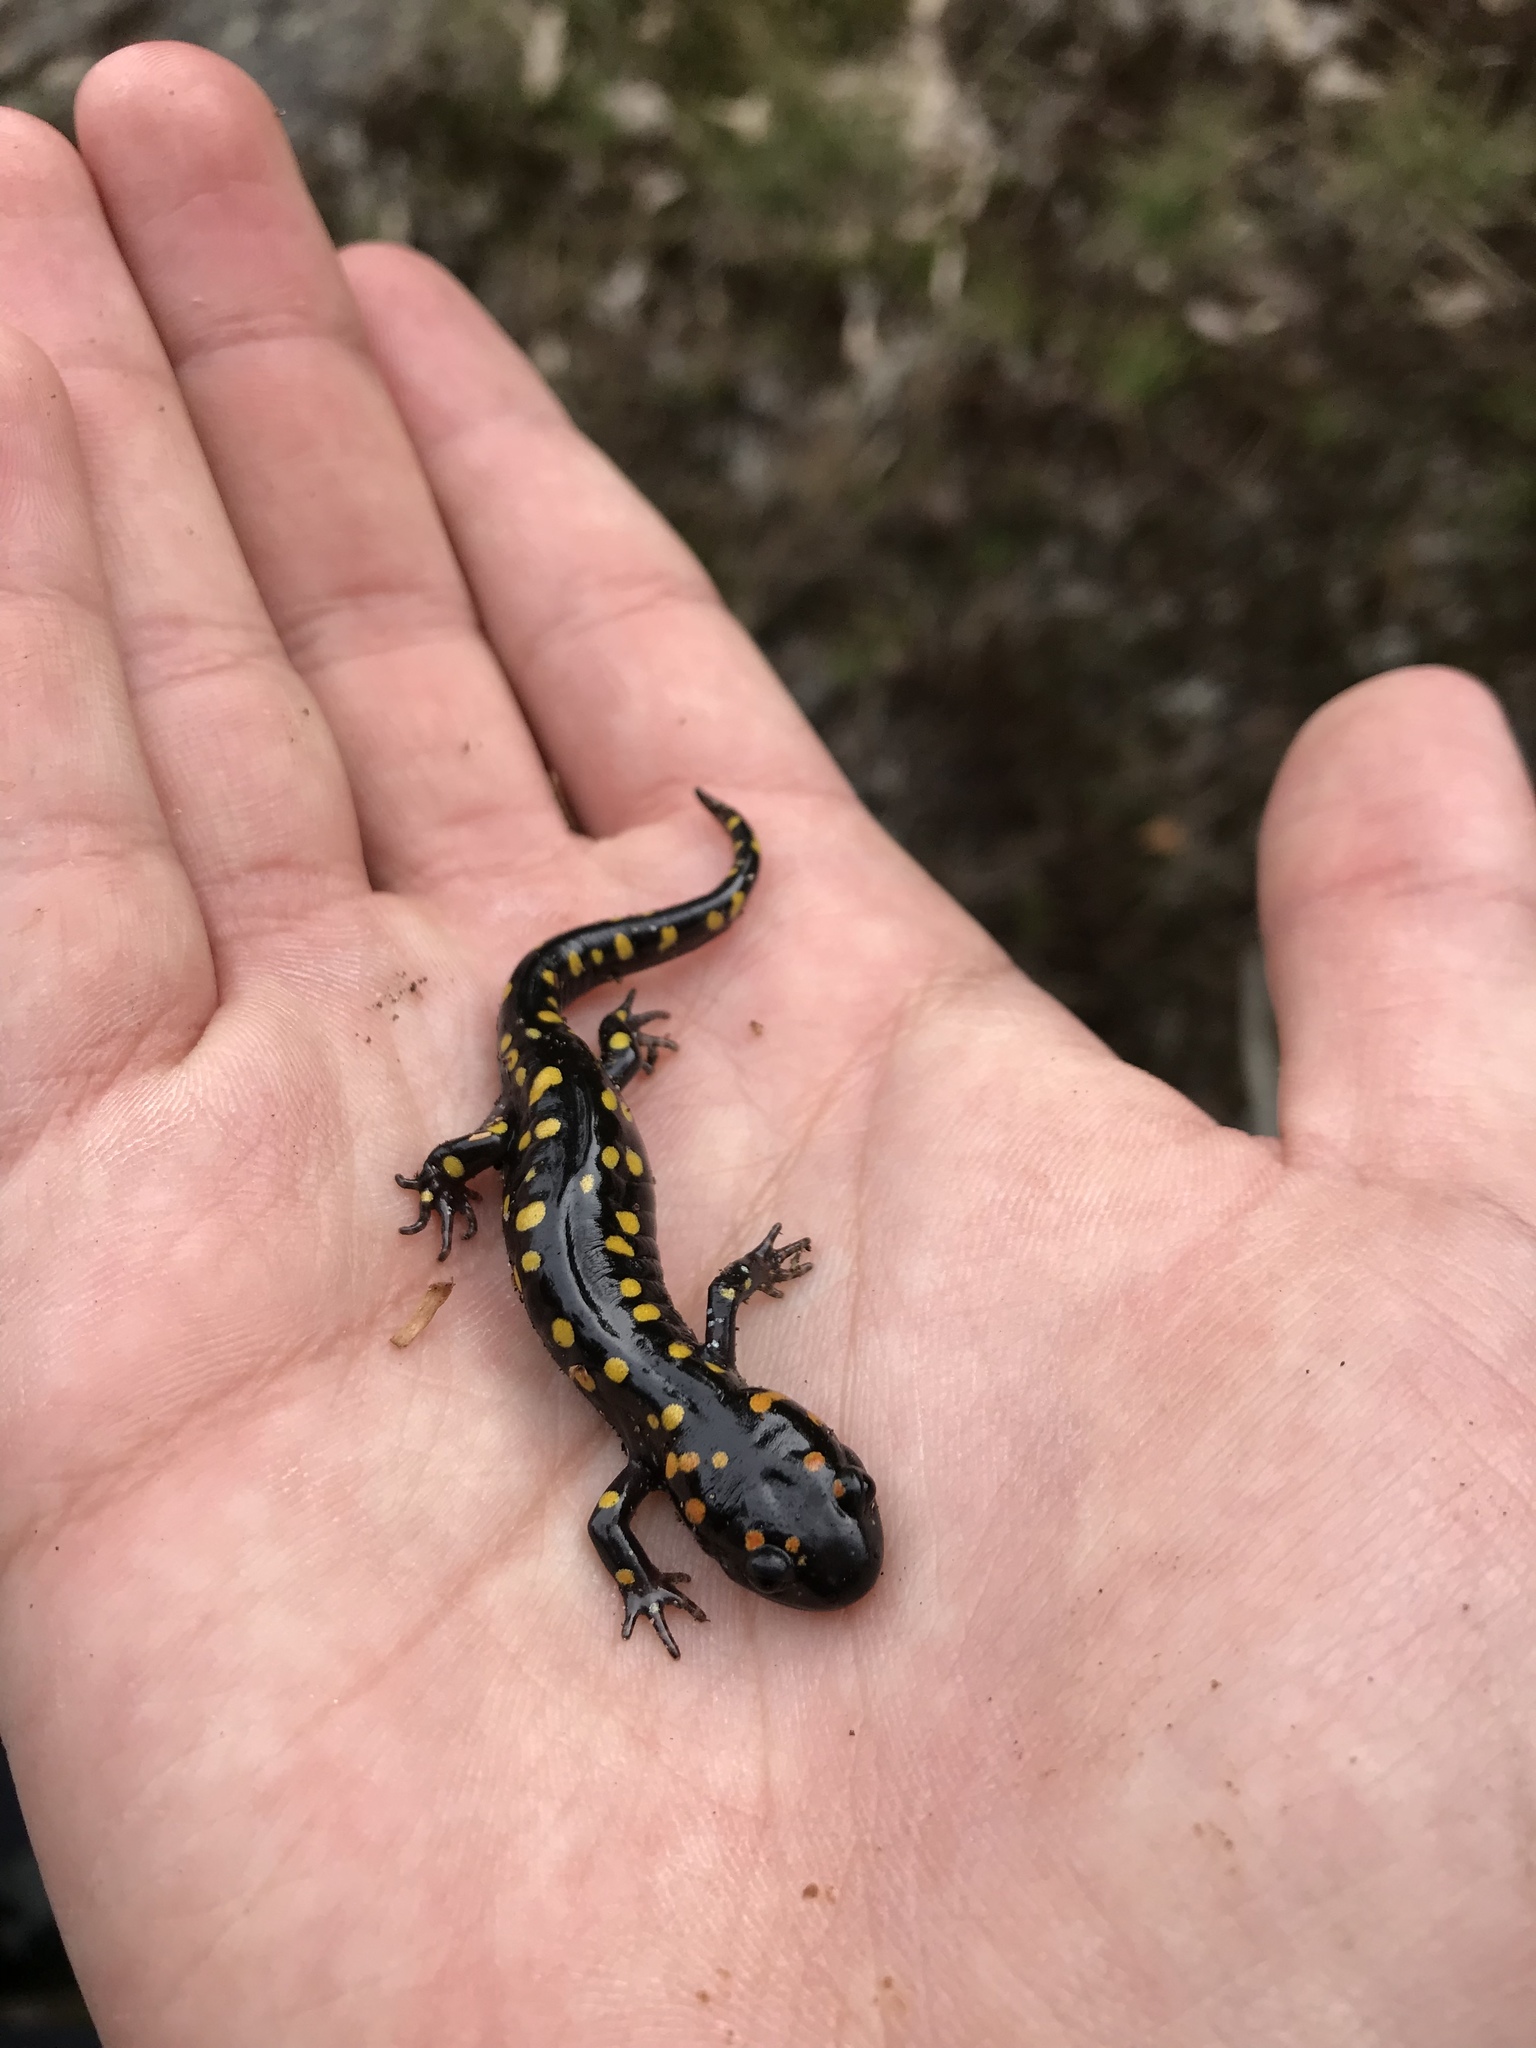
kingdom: Animalia
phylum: Chordata
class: Amphibia
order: Caudata
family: Ambystomatidae
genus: Ambystoma
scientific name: Ambystoma maculatum
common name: Spotted salamander
